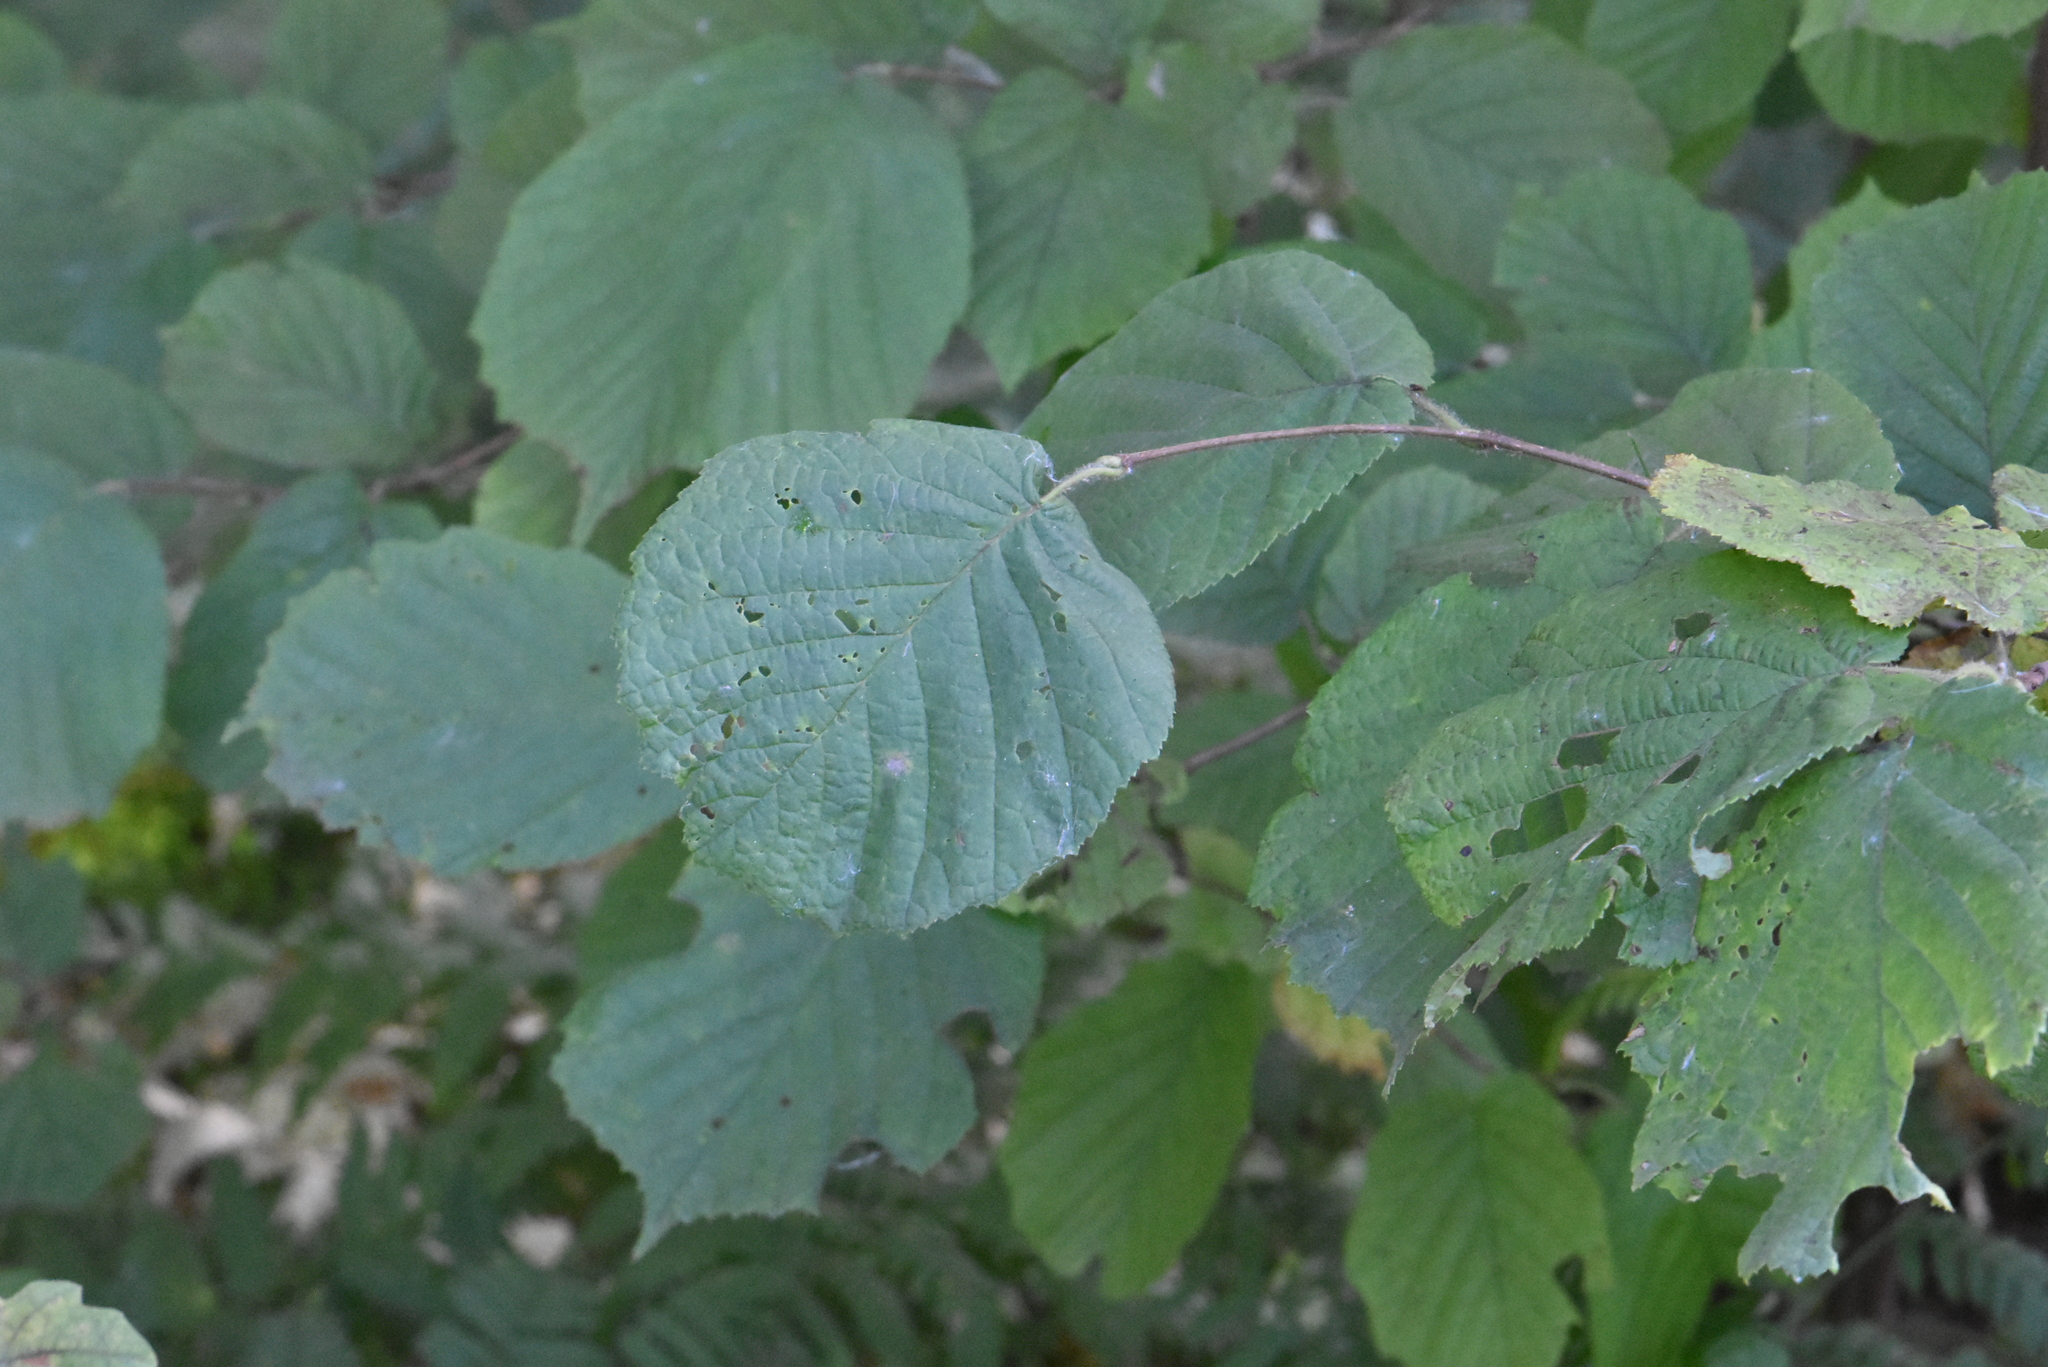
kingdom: Plantae
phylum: Tracheophyta
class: Magnoliopsida
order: Fagales
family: Betulaceae
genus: Corylus
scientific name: Corylus avellana
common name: European hazel
